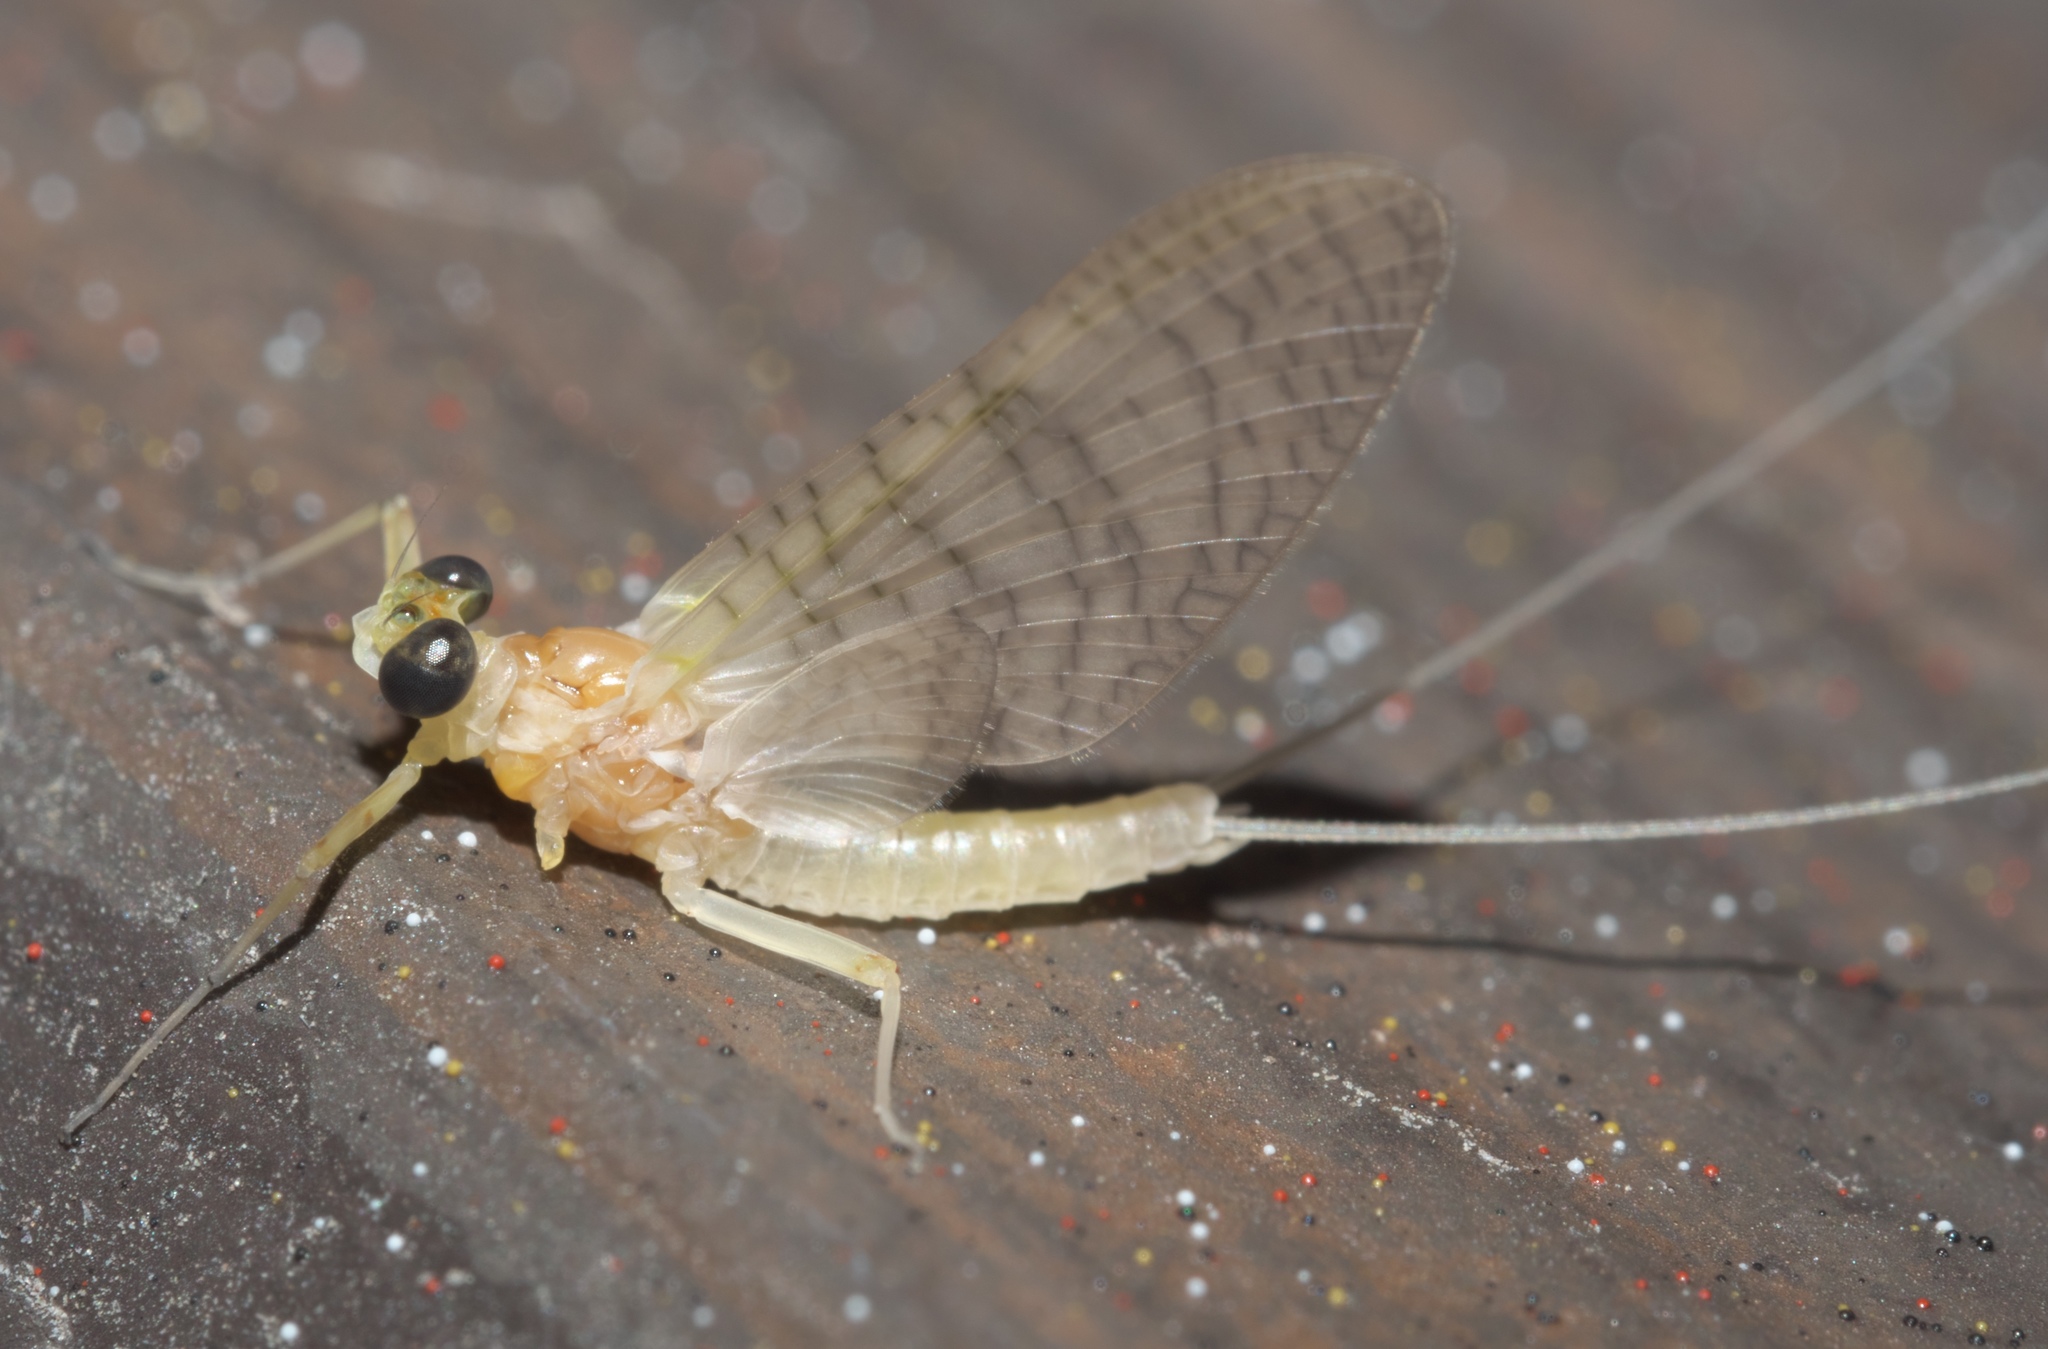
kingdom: Animalia
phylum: Arthropoda
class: Insecta
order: Ephemeroptera
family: Heptageniidae
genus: Maccaffertium
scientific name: Maccaffertium terminatum
